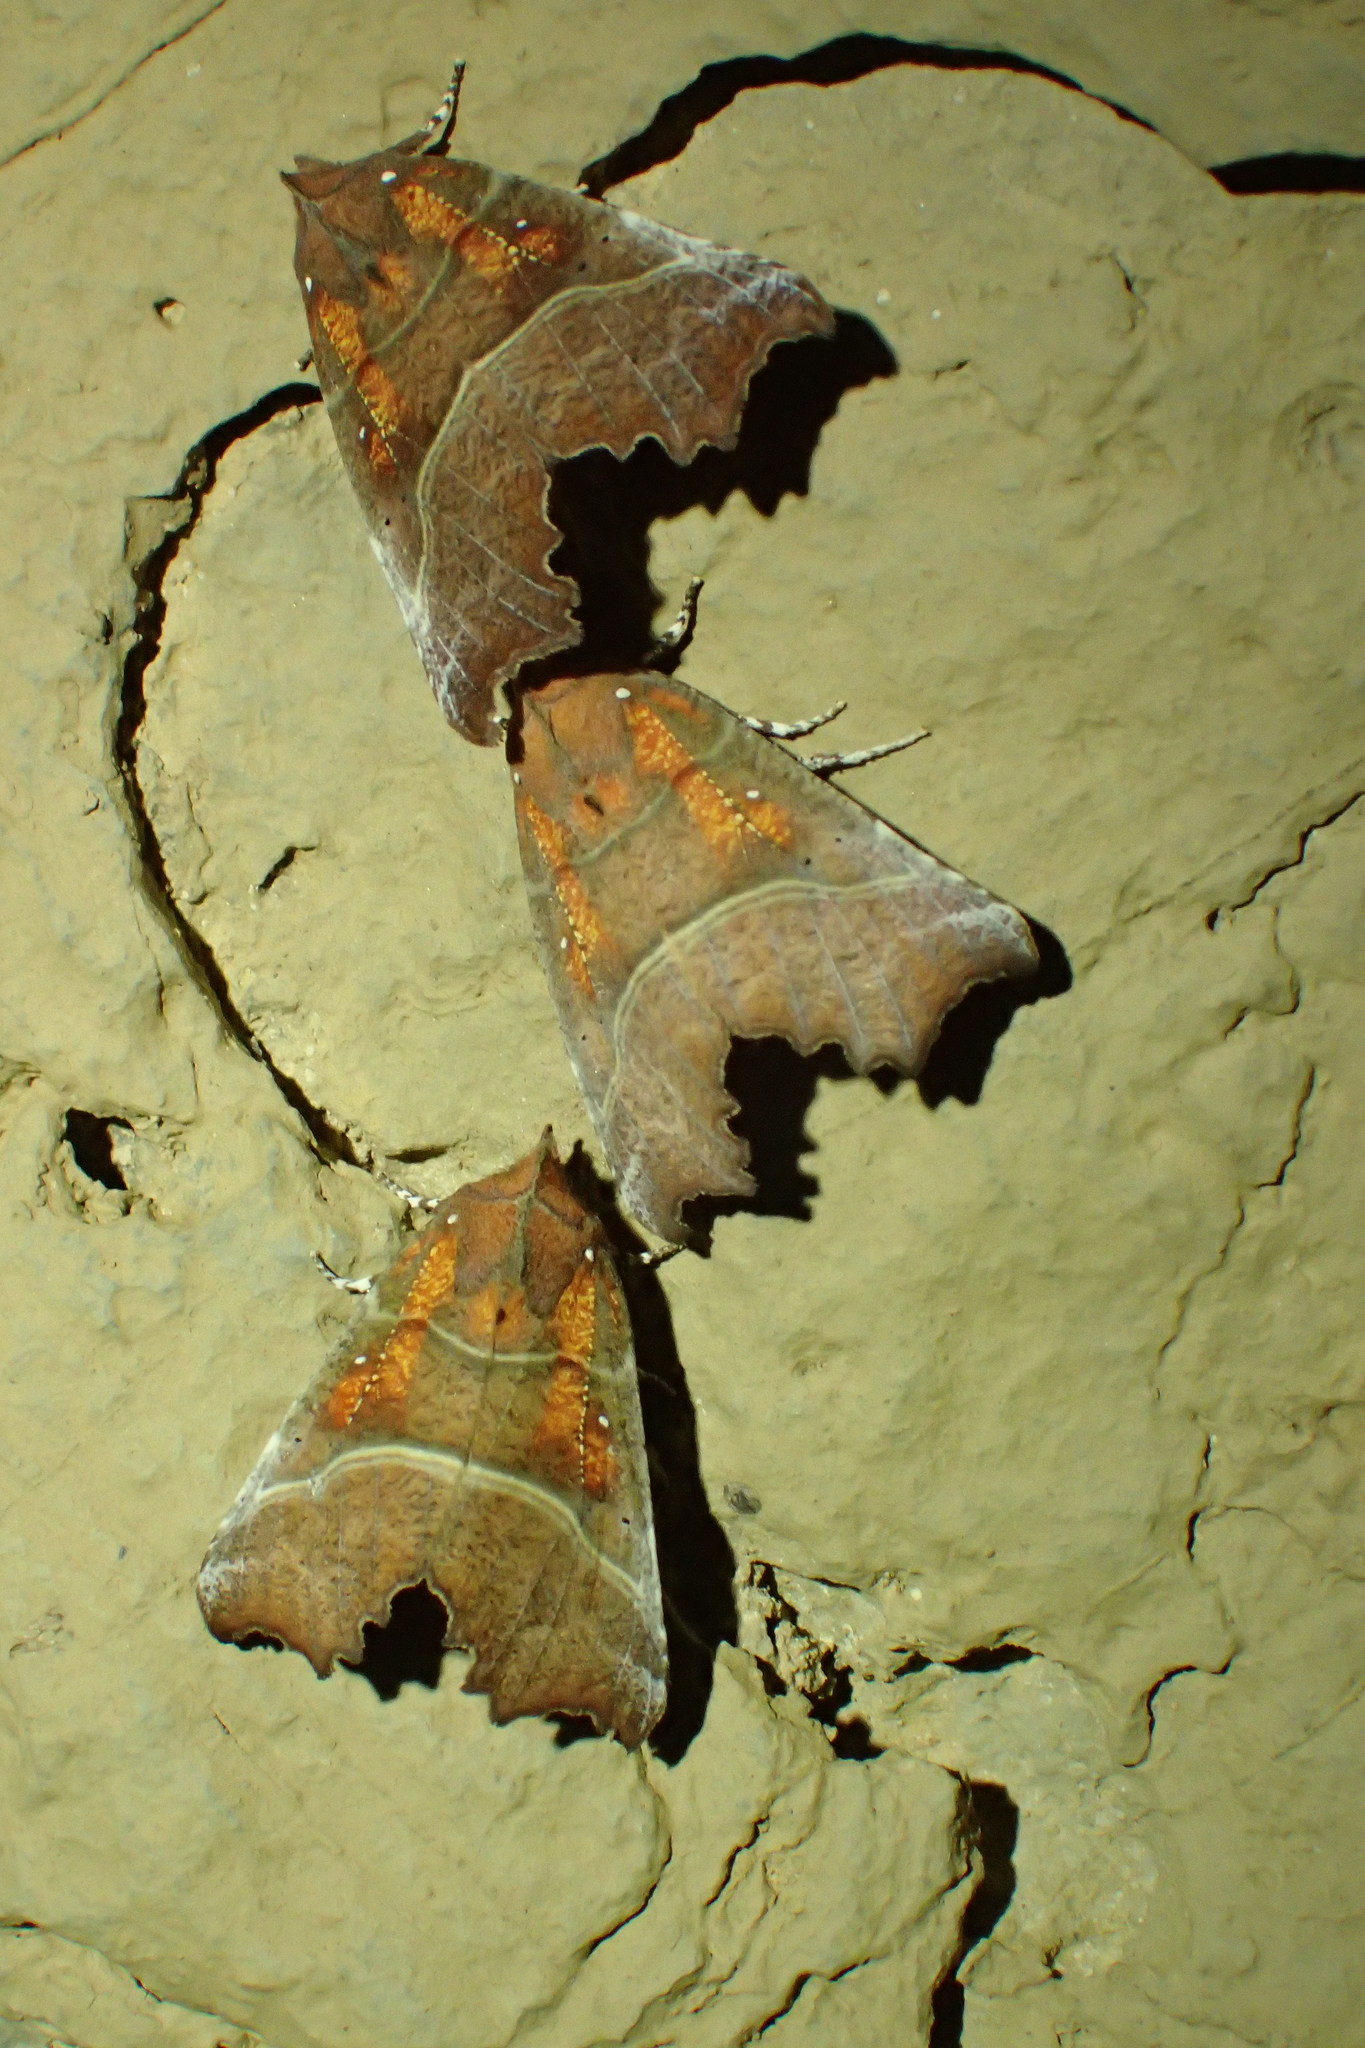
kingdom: Animalia
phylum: Arthropoda
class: Insecta
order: Lepidoptera
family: Erebidae
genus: Scoliopteryx
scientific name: Scoliopteryx libatrix
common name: Herald
